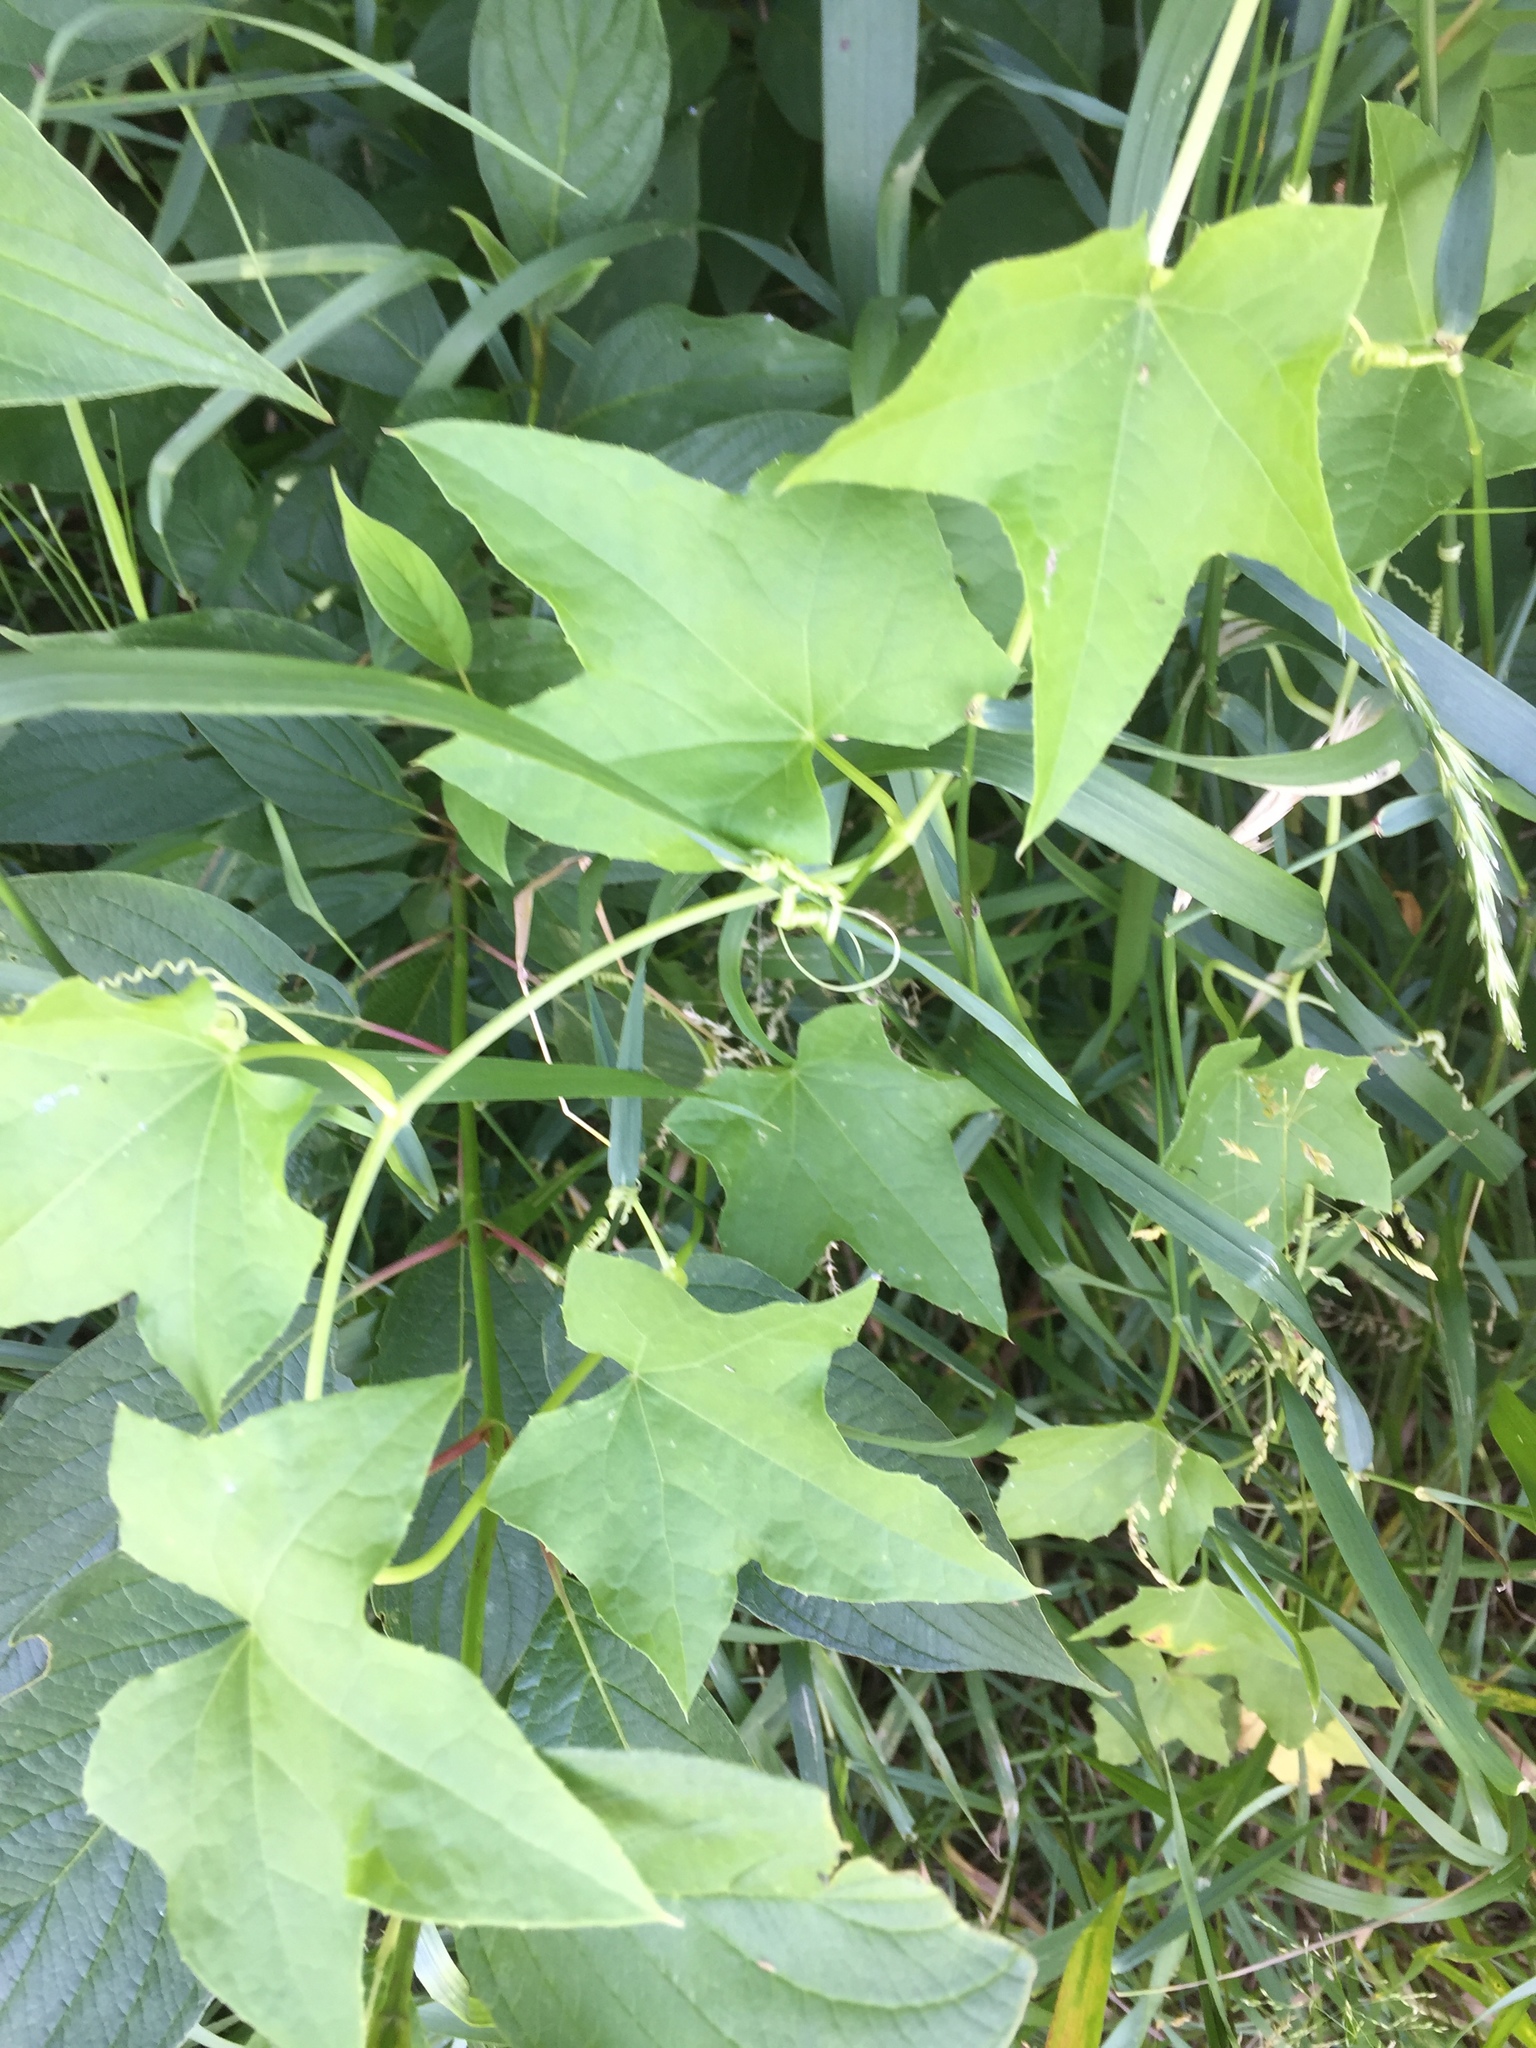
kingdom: Plantae
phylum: Tracheophyta
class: Magnoliopsida
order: Cucurbitales
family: Cucurbitaceae
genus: Echinocystis
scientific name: Echinocystis lobata
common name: Wild cucumber
